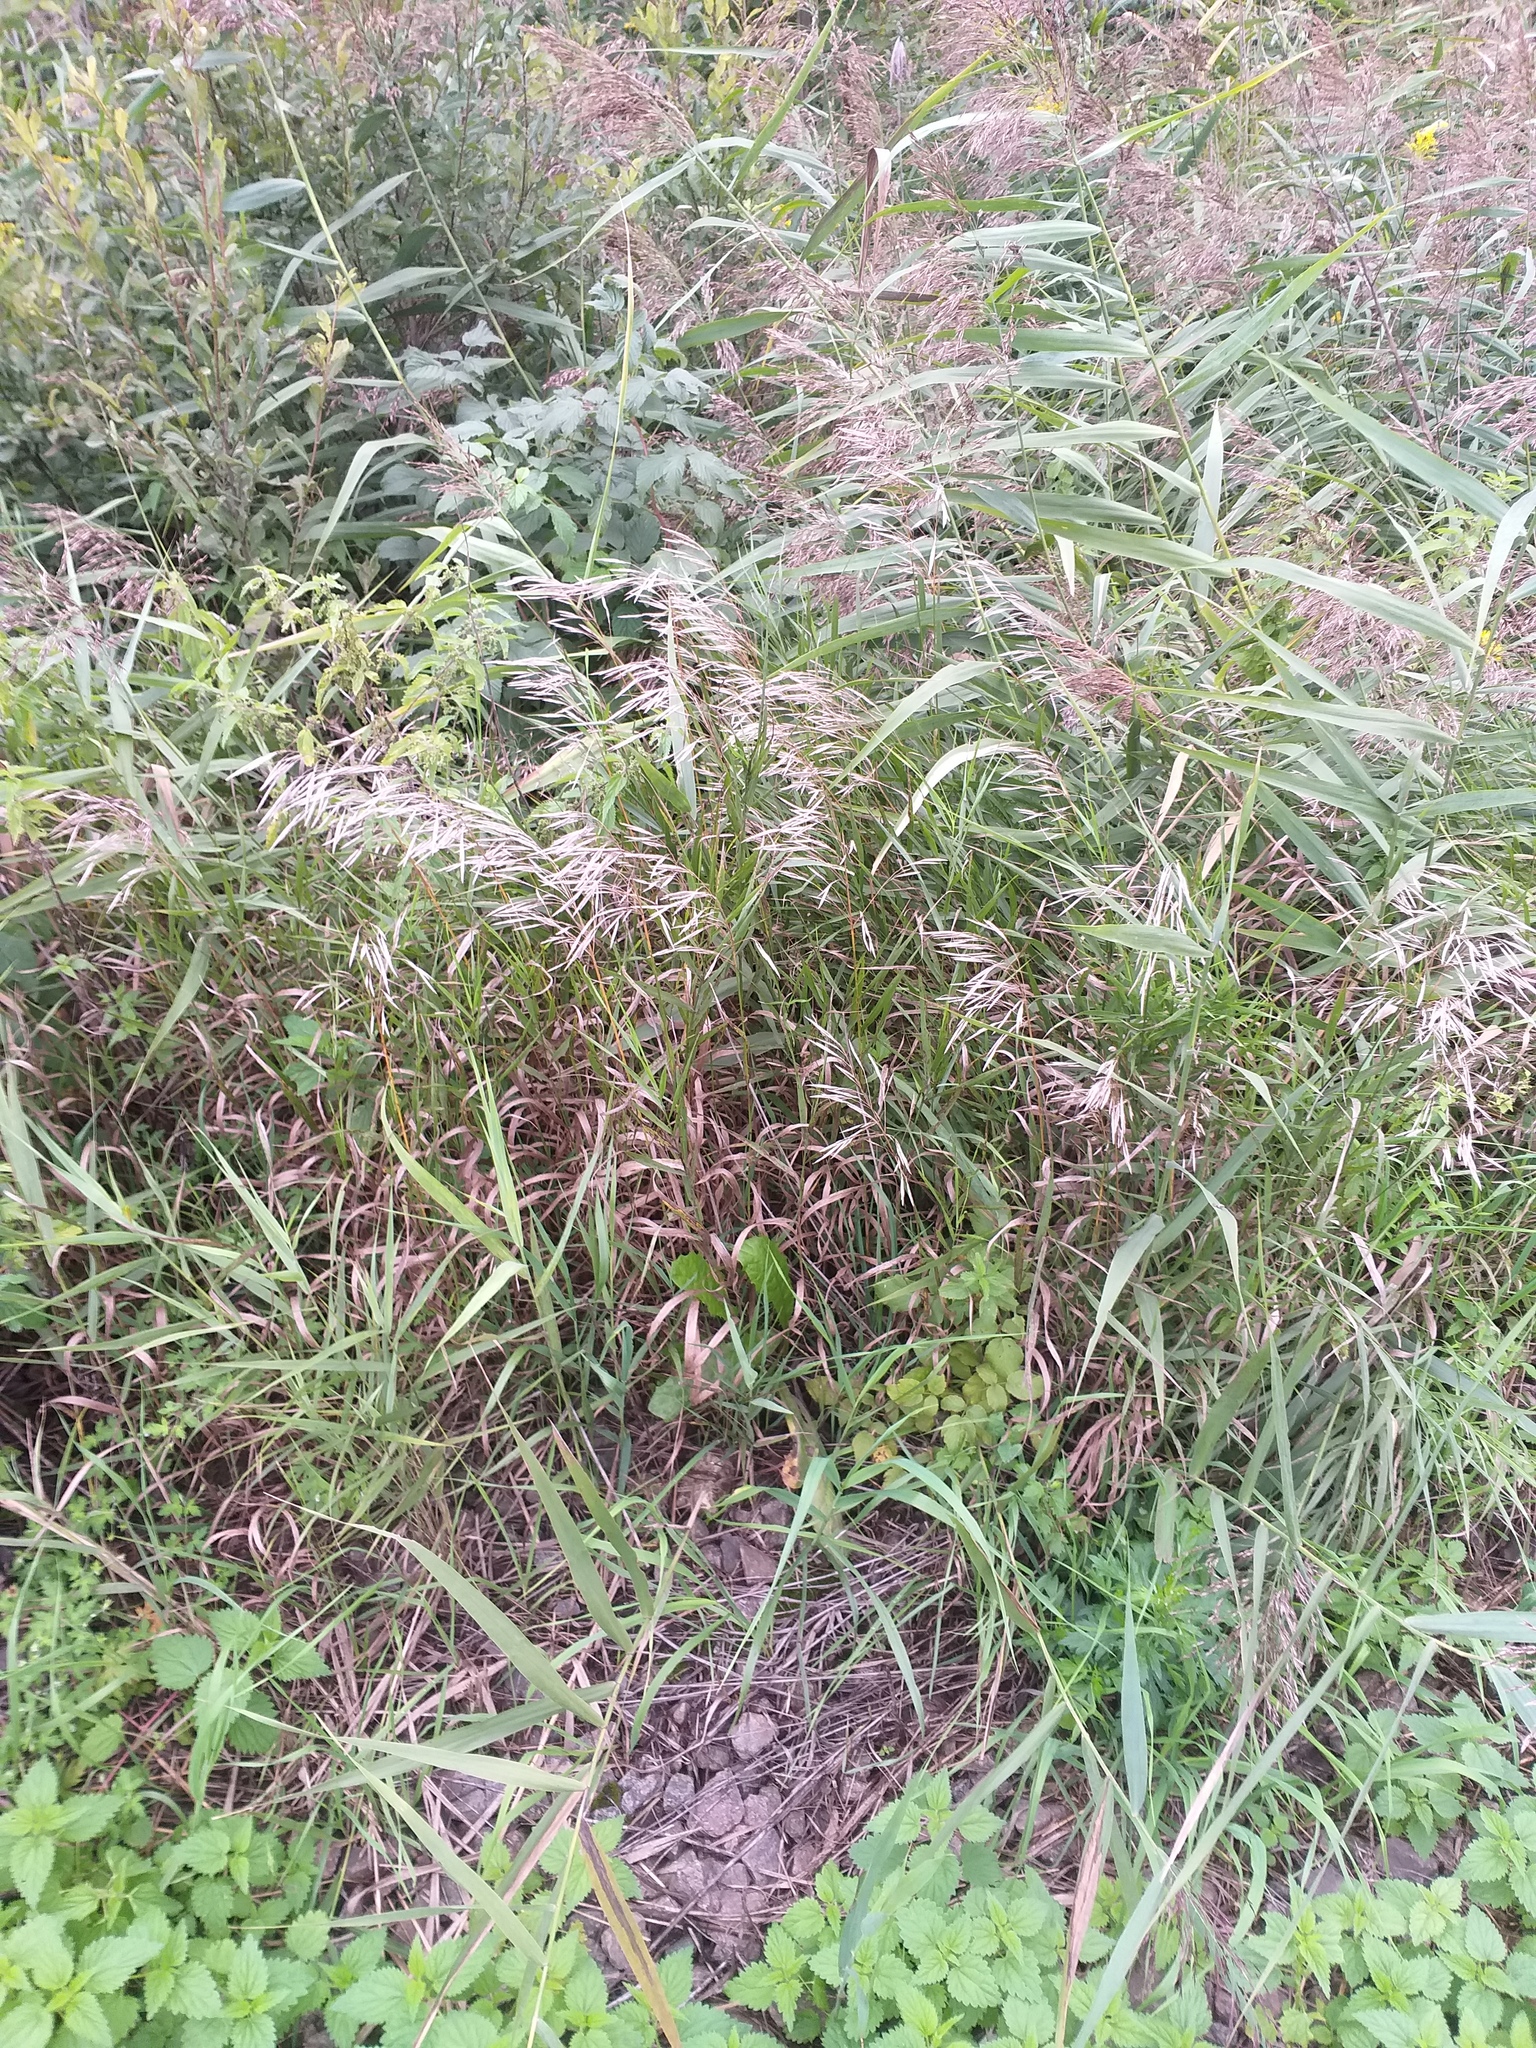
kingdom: Plantae
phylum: Tracheophyta
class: Liliopsida
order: Poales
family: Poaceae
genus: Bromus
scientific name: Bromus inermis
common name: Smooth brome
